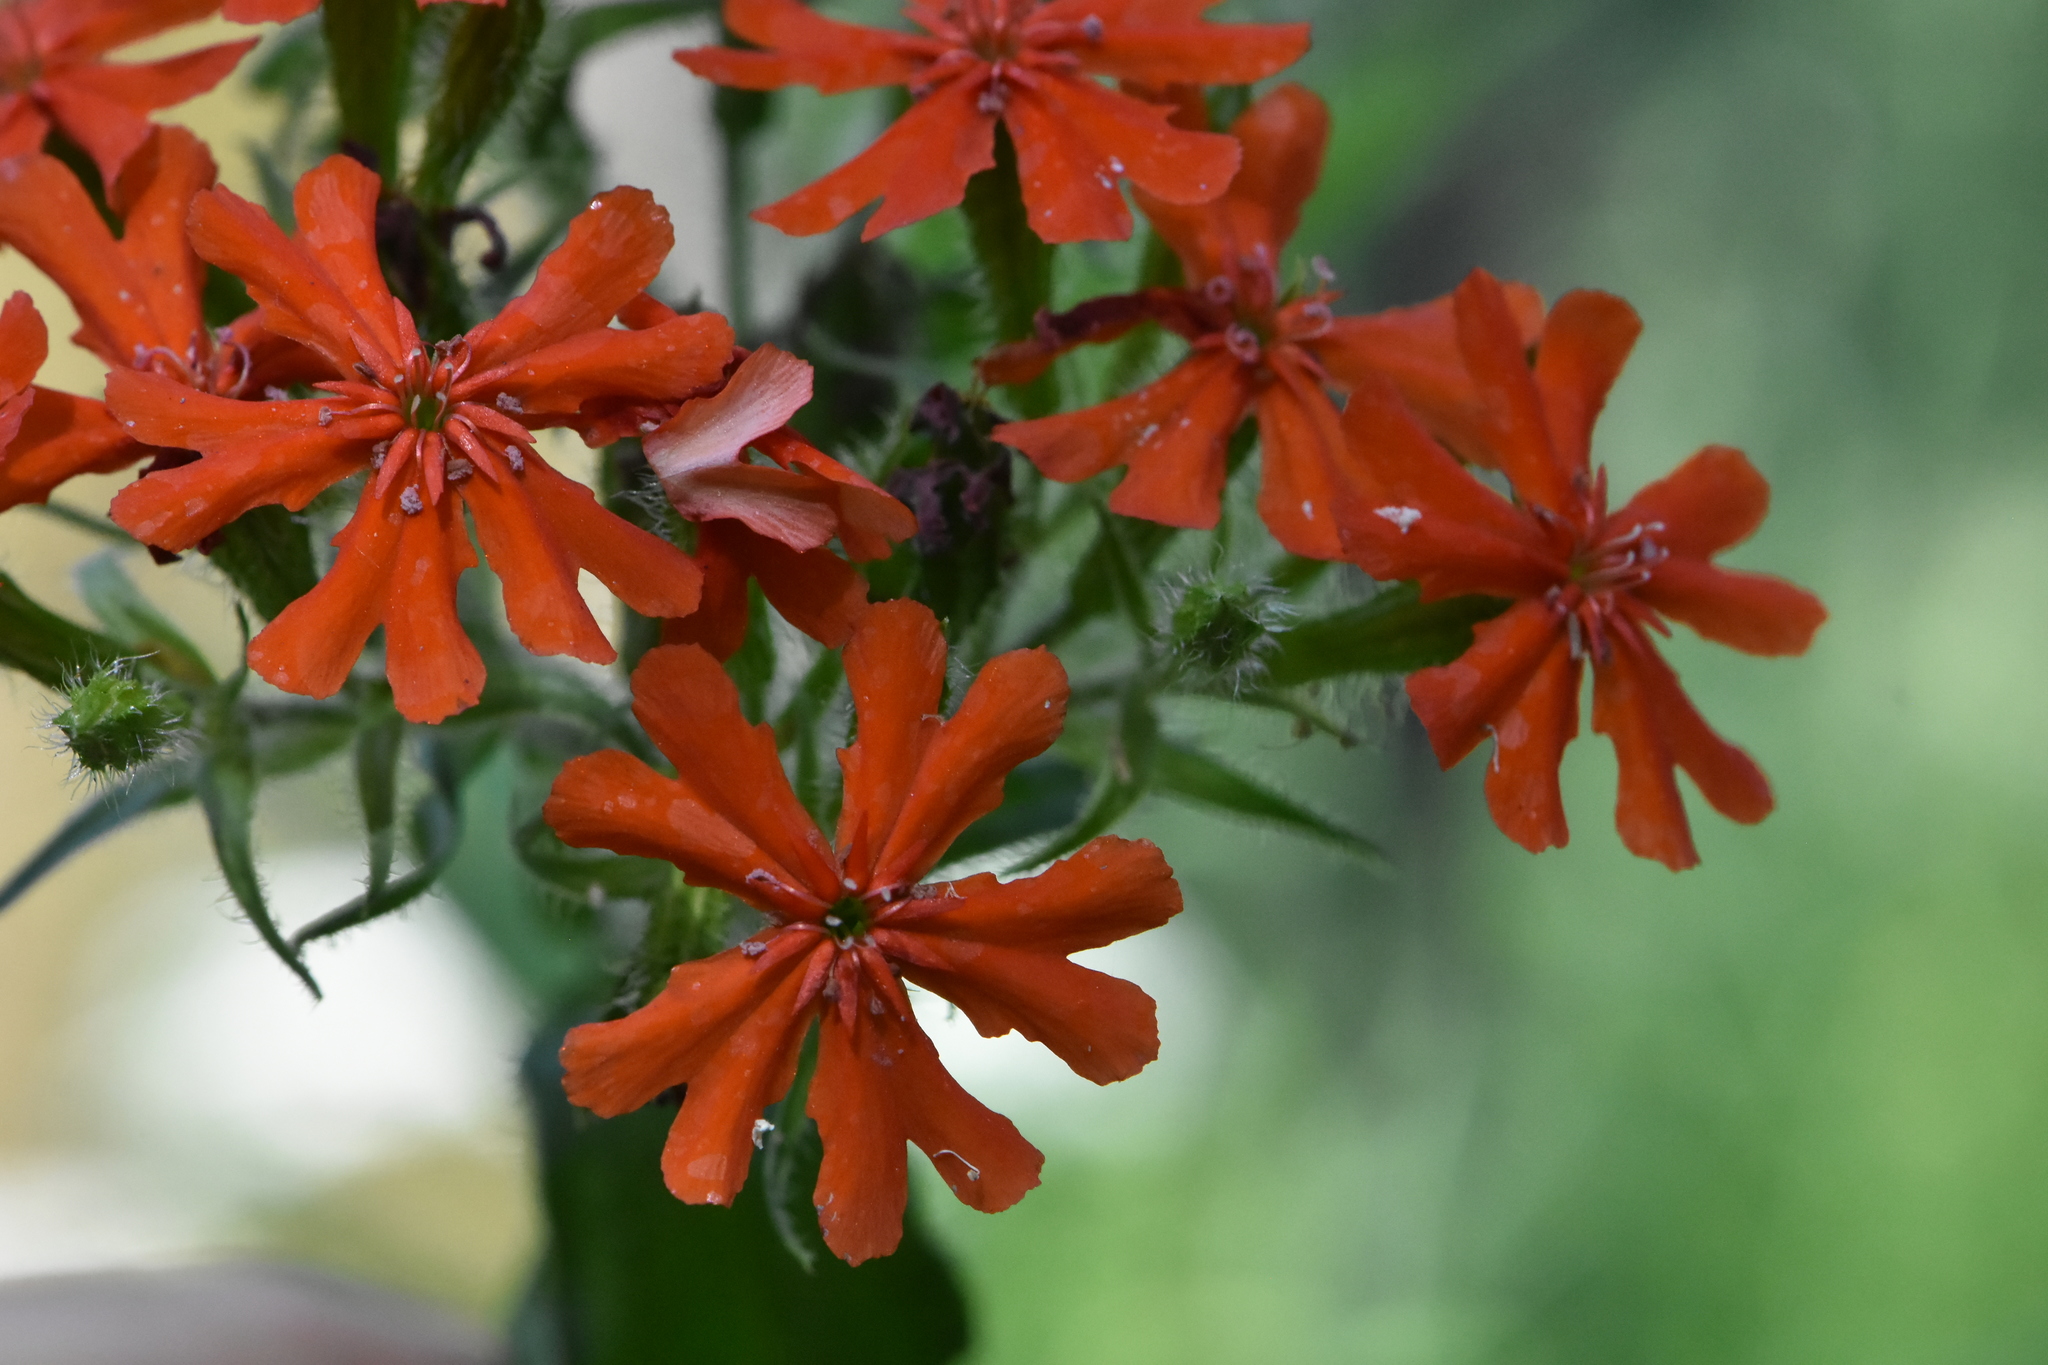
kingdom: Plantae
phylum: Tracheophyta
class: Magnoliopsida
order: Caryophyllales
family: Caryophyllaceae
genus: Silene
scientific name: Silene chalcedonica
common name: Maltese-cross
